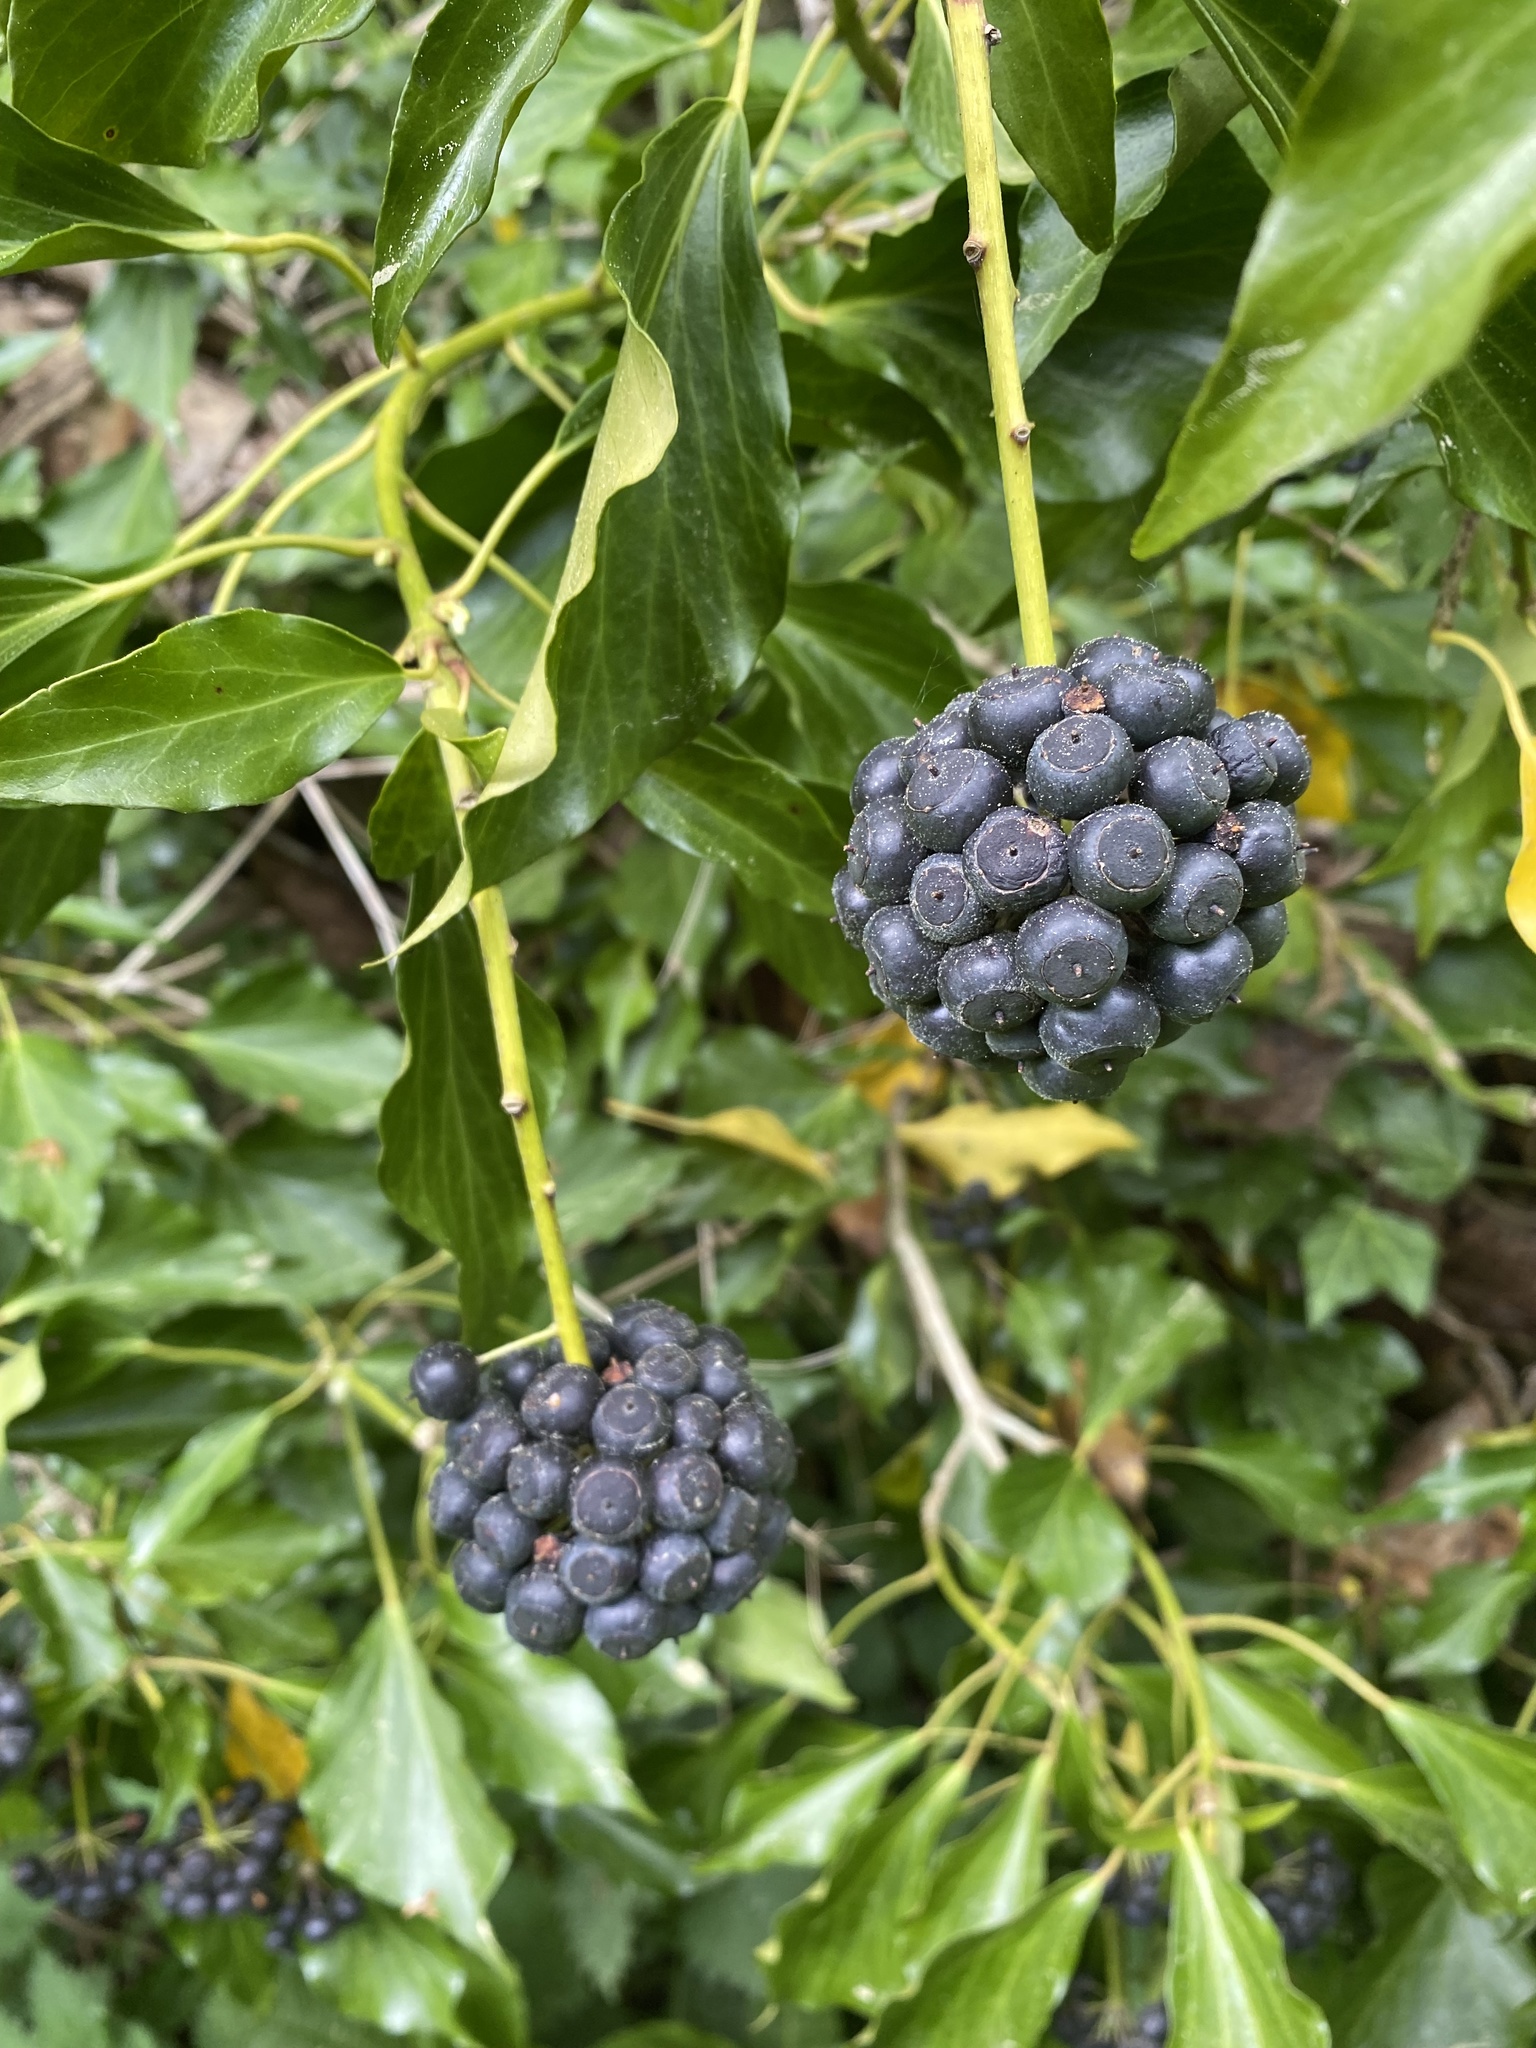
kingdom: Plantae
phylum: Tracheophyta
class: Magnoliopsida
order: Apiales
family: Araliaceae
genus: Hedera
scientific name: Hedera helix
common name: Ivy
